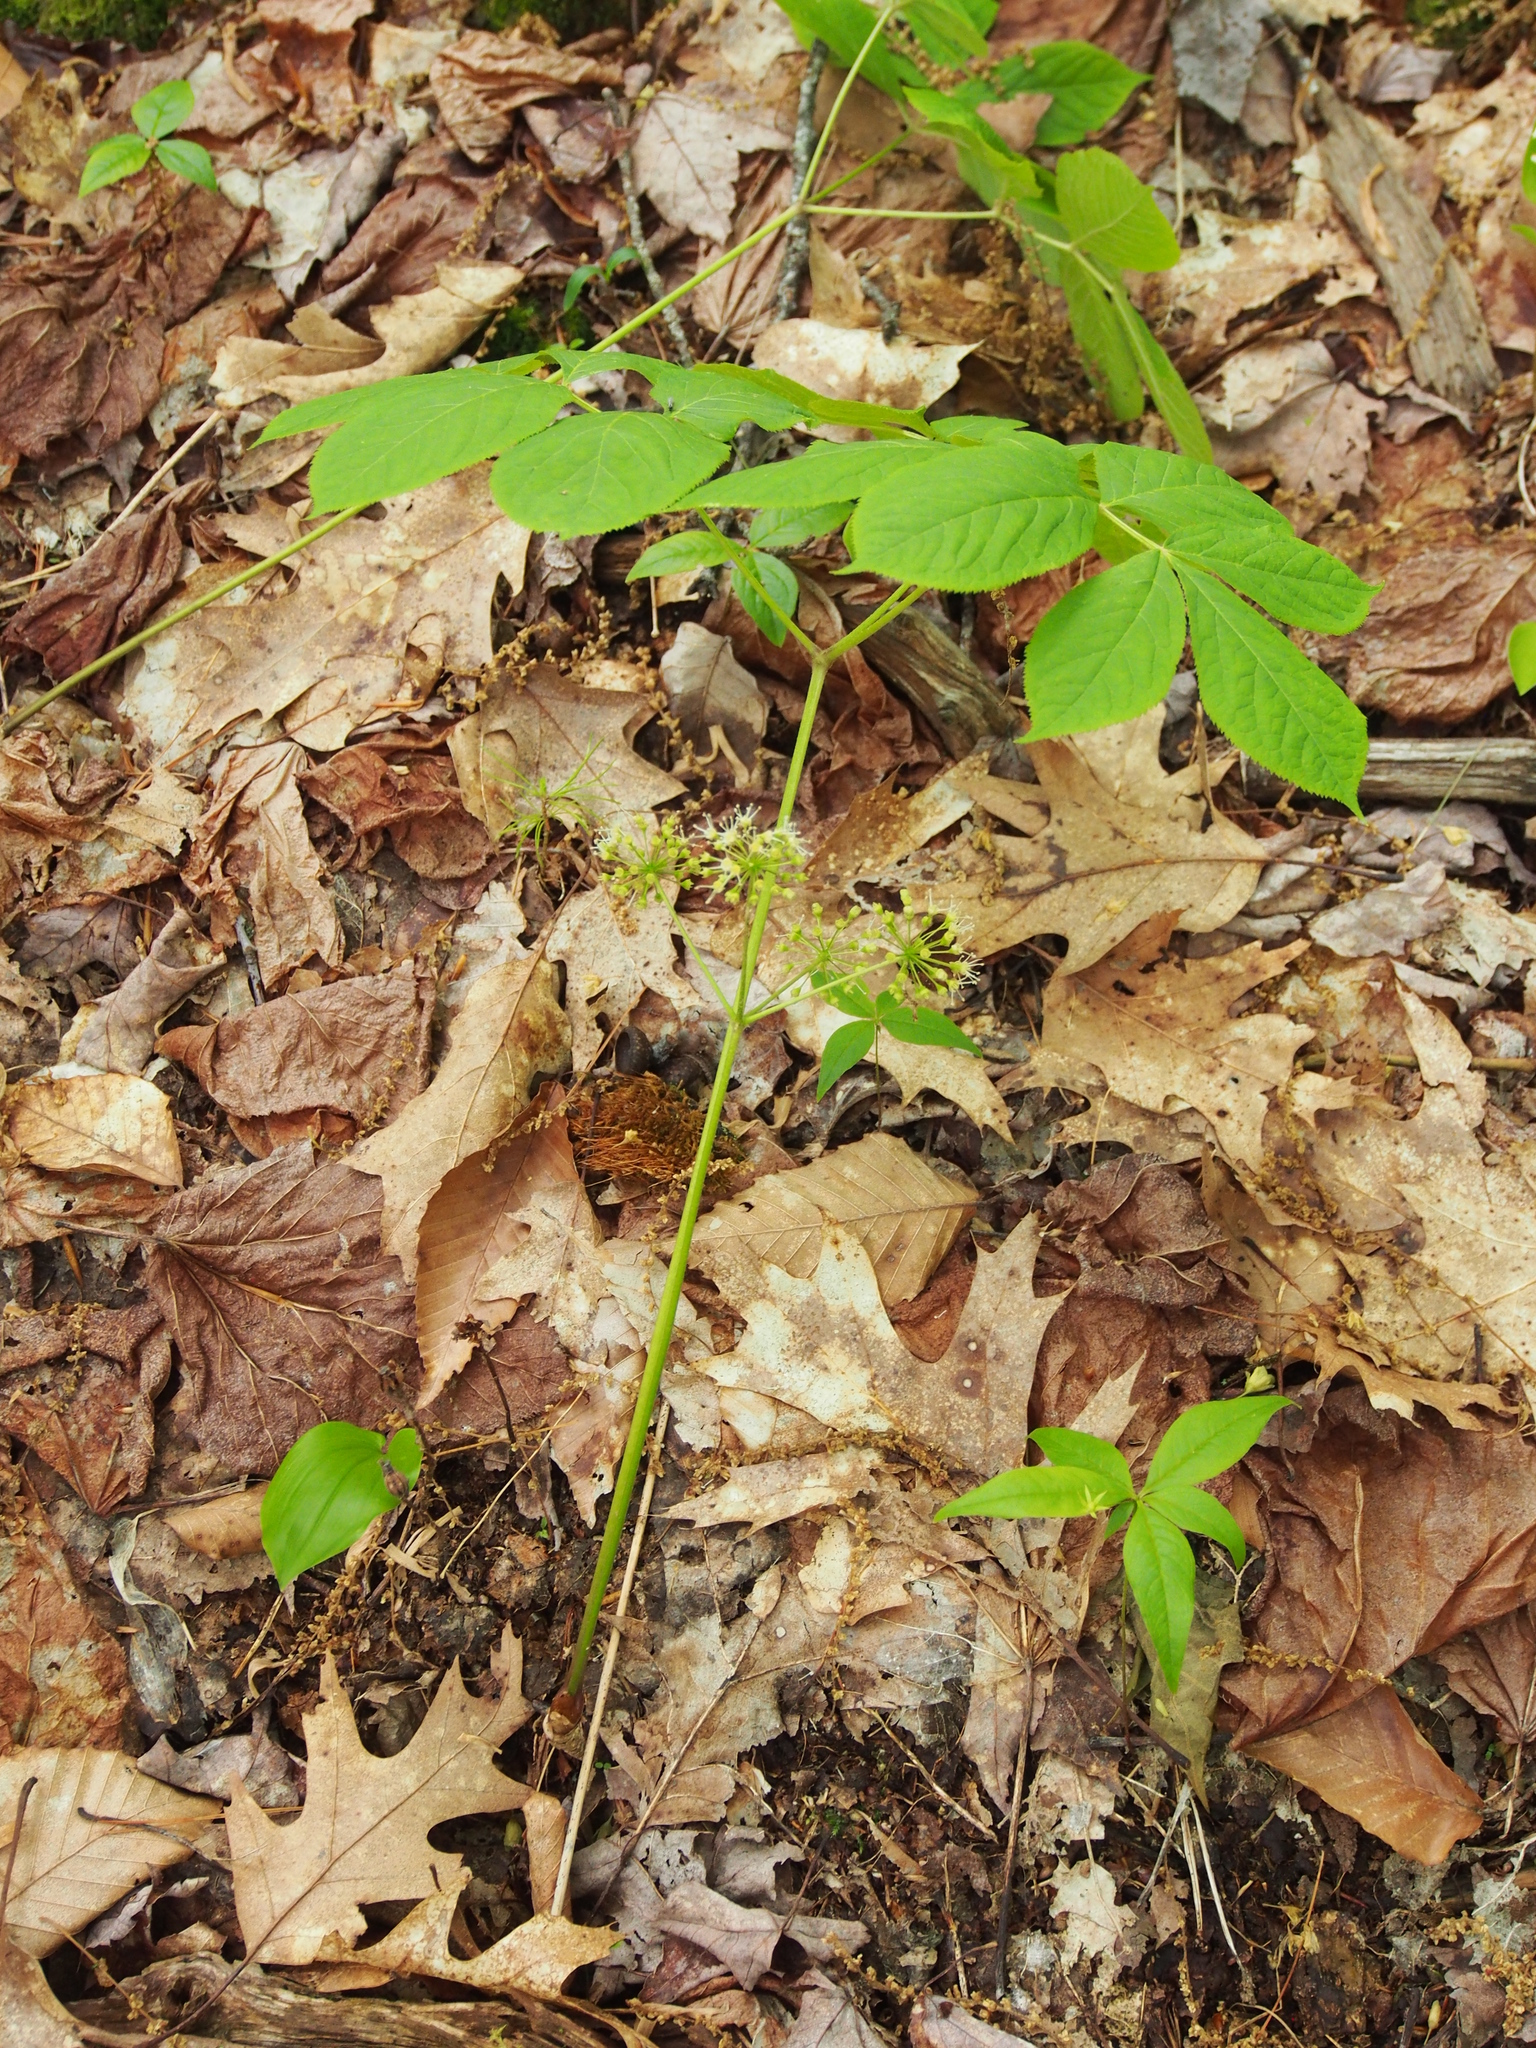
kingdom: Plantae
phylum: Tracheophyta
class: Magnoliopsida
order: Apiales
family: Araliaceae
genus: Aralia
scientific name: Aralia nudicaulis
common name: Wild sarsaparilla
